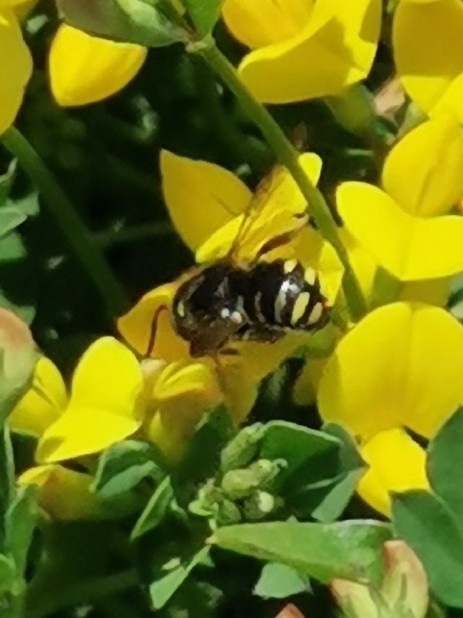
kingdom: Animalia
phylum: Arthropoda
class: Insecta
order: Hymenoptera
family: Megachilidae
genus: Anthidium
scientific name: Anthidium oblongatum
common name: Oblong wool carder bee
